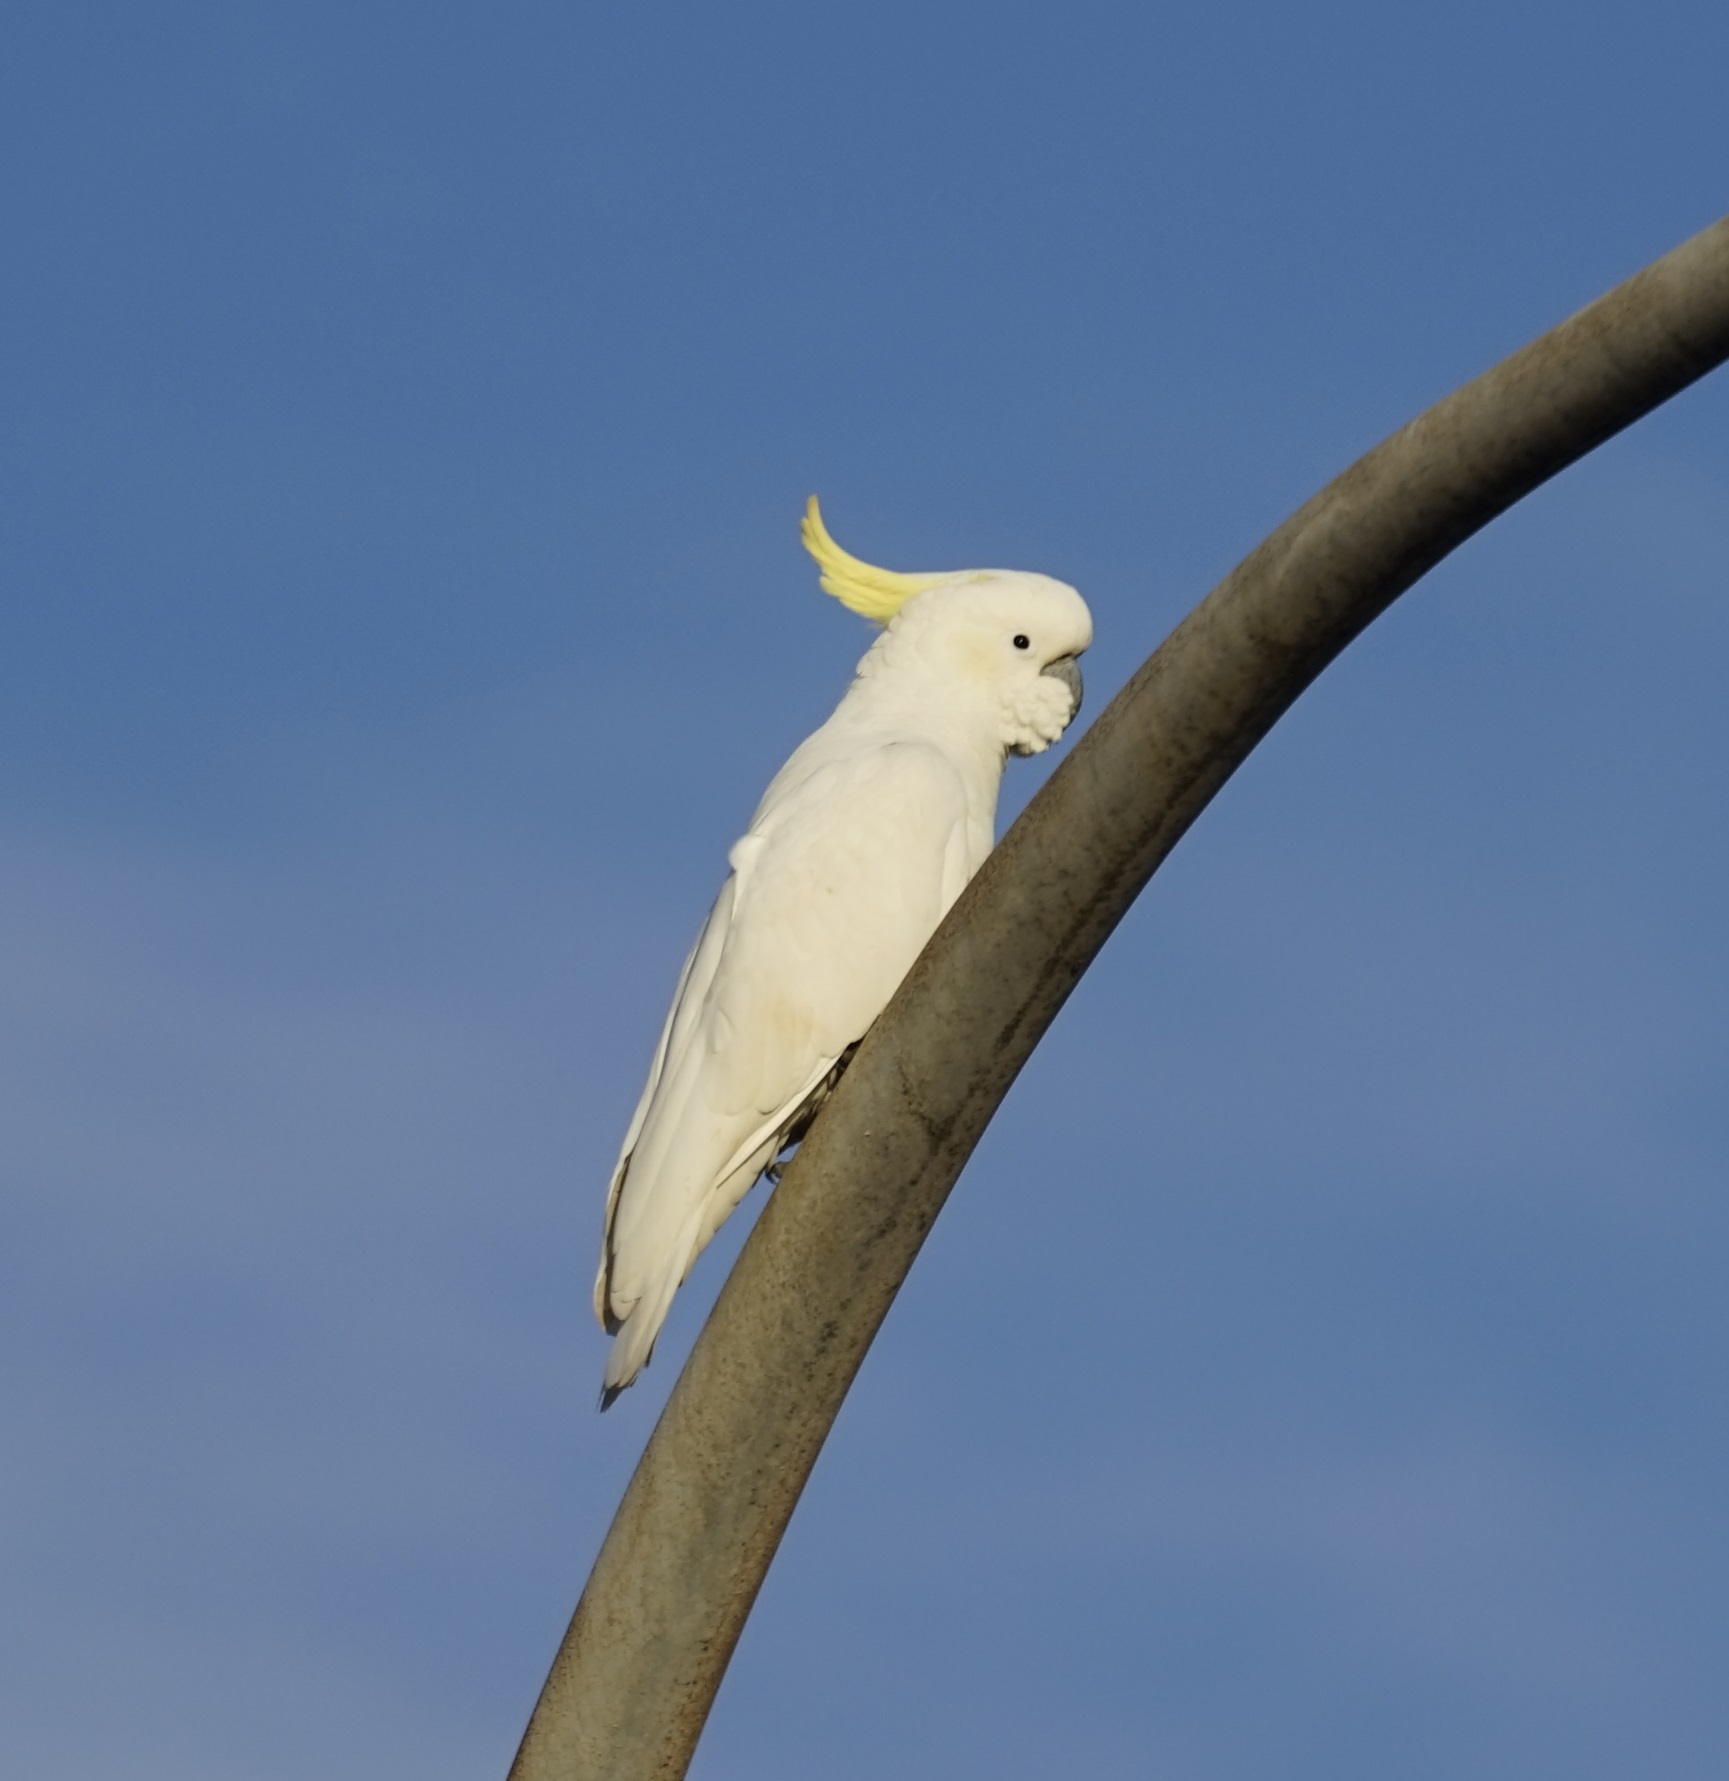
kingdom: Animalia
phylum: Chordata
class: Aves
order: Psittaciformes
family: Psittacidae
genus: Cacatua
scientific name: Cacatua galerita
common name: Sulphur-crested cockatoo
